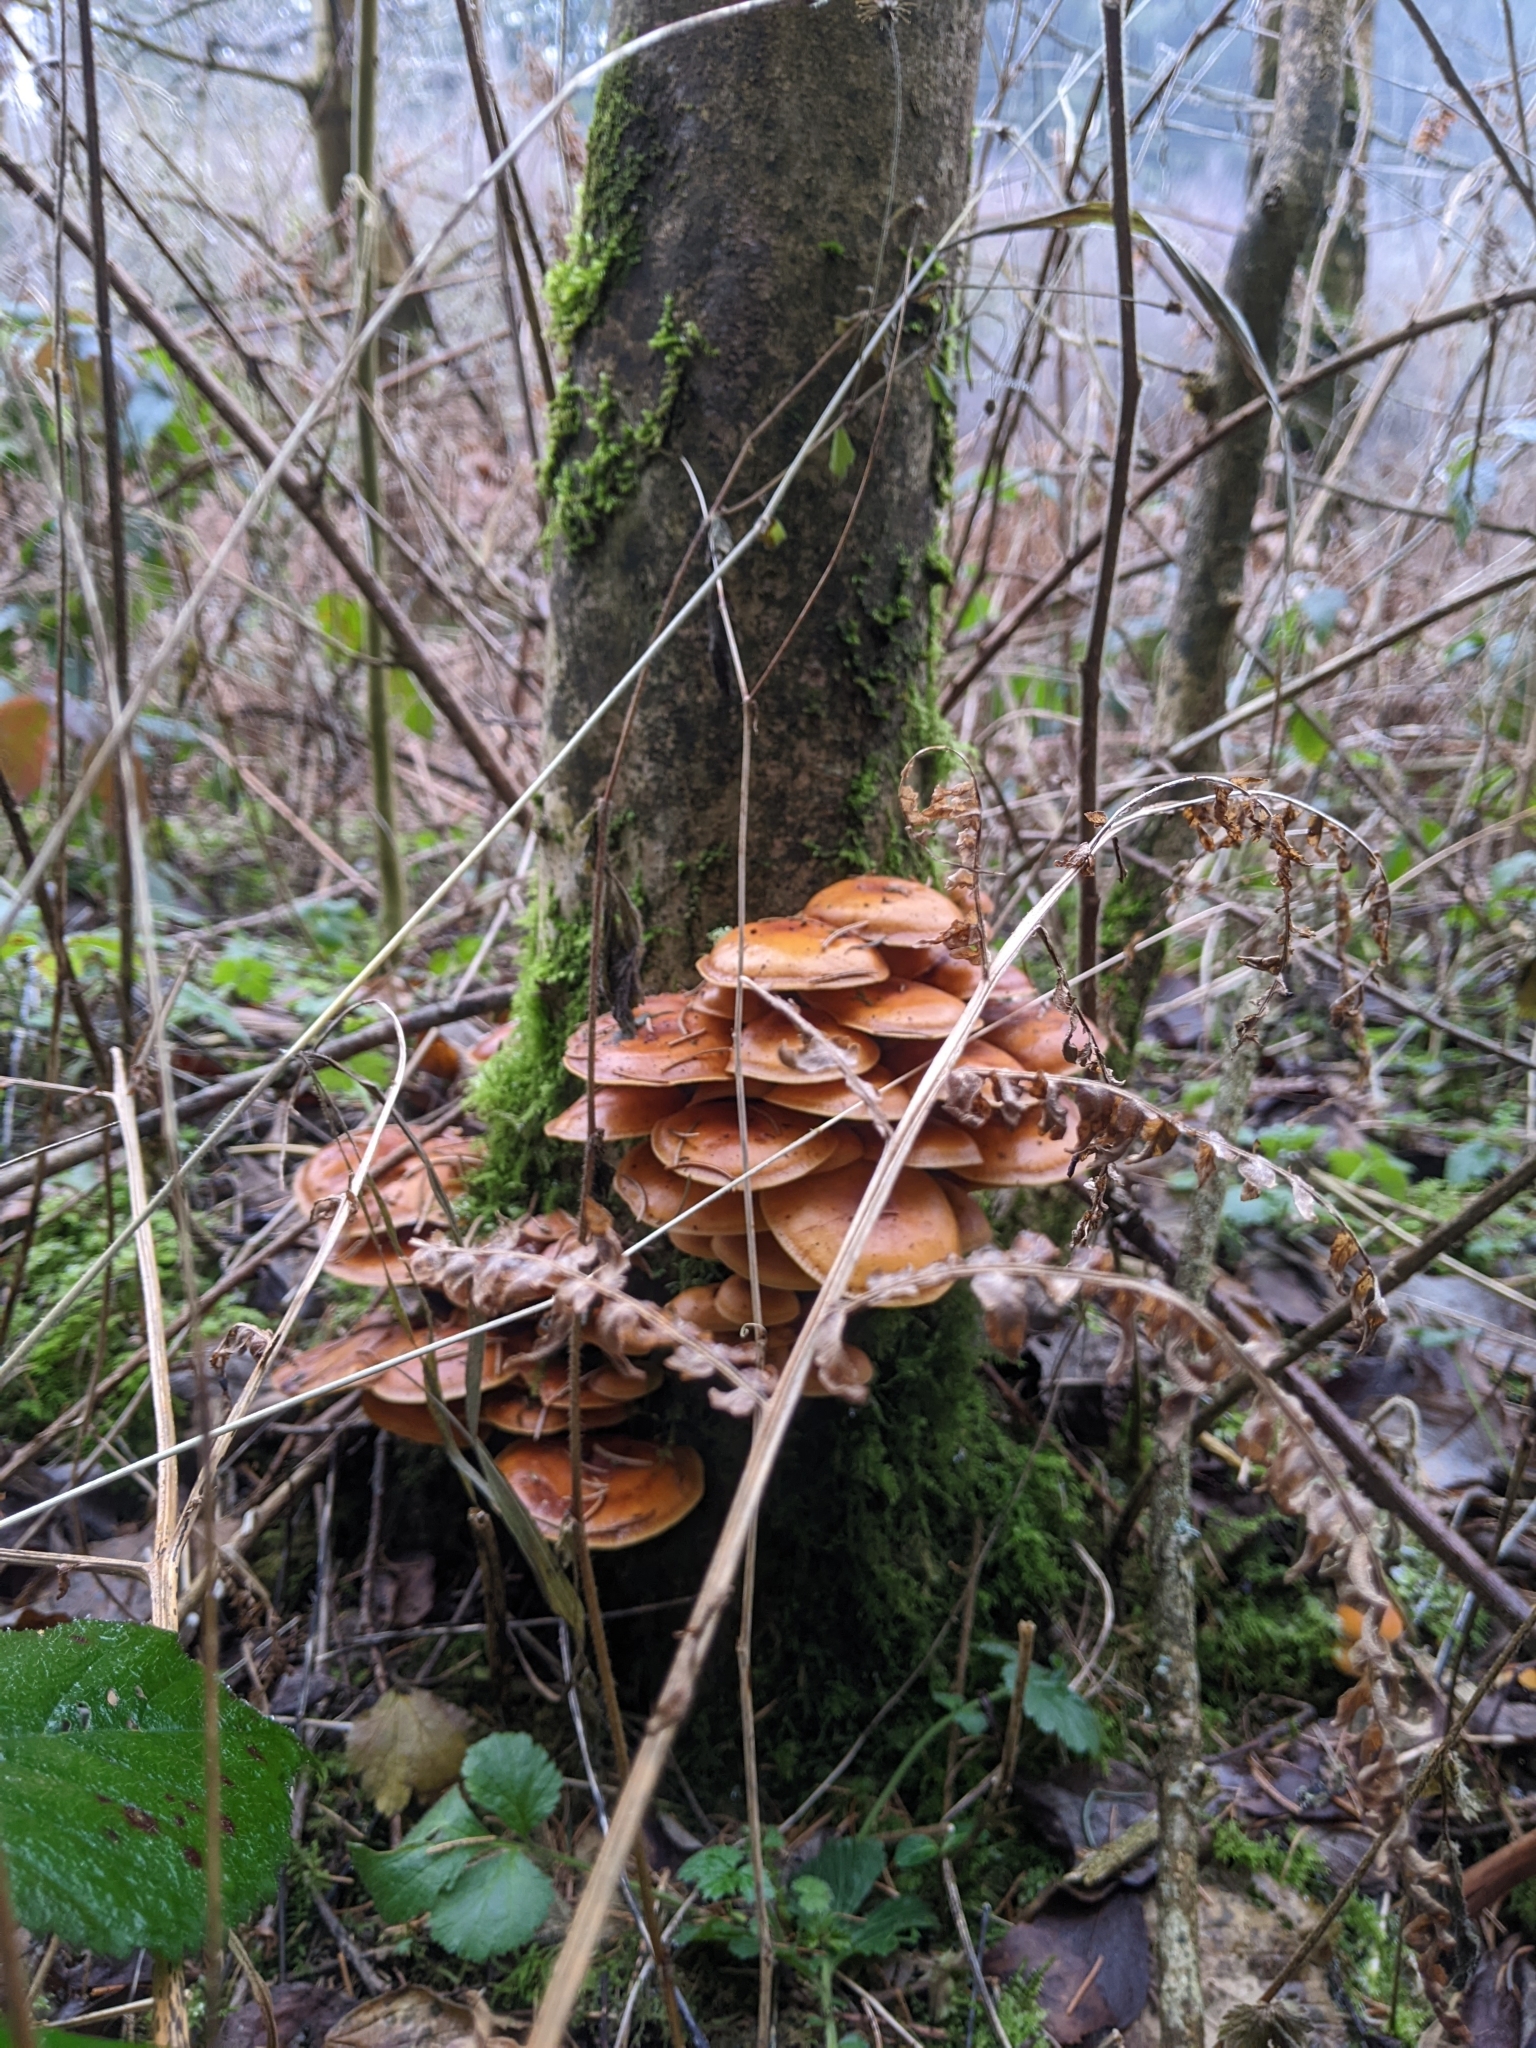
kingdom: Fungi
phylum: Basidiomycota
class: Agaricomycetes
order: Agaricales
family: Physalacriaceae
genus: Flammulina
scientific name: Flammulina
